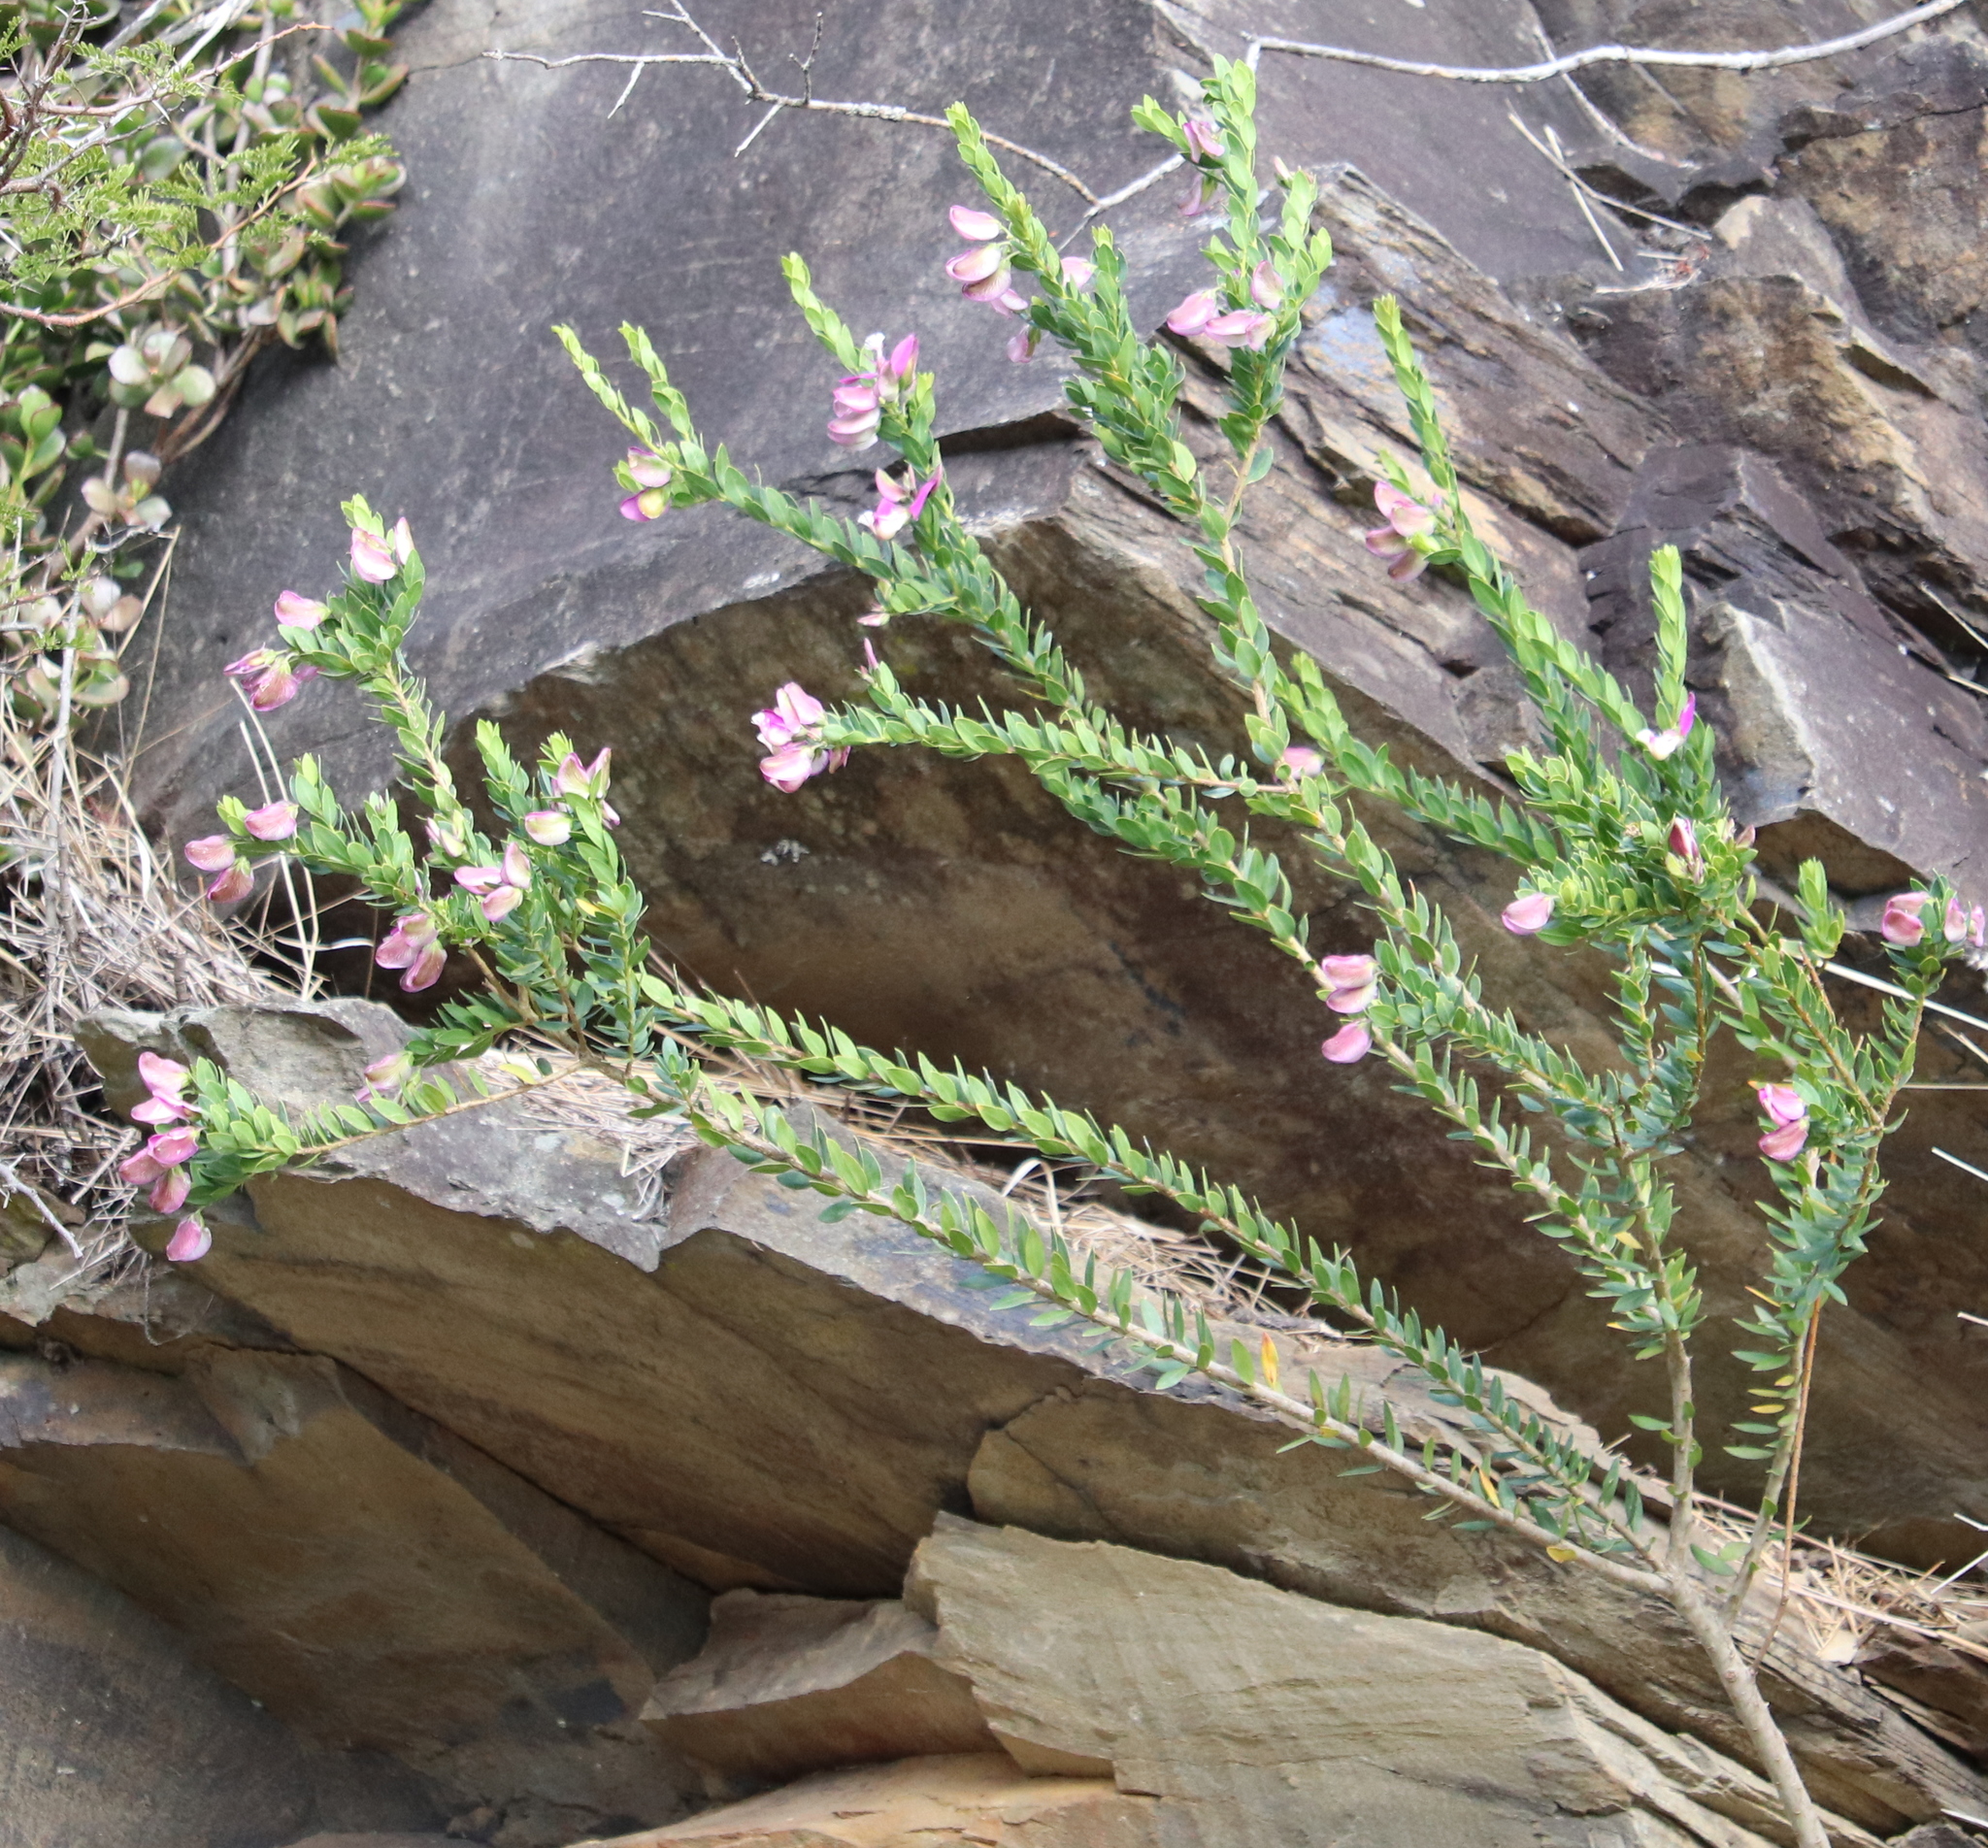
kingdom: Plantae
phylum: Tracheophyta
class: Magnoliopsida
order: Fabales
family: Polygalaceae
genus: Polygala
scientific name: Polygala myrtifolia
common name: Myrtle-leaf milkwort
